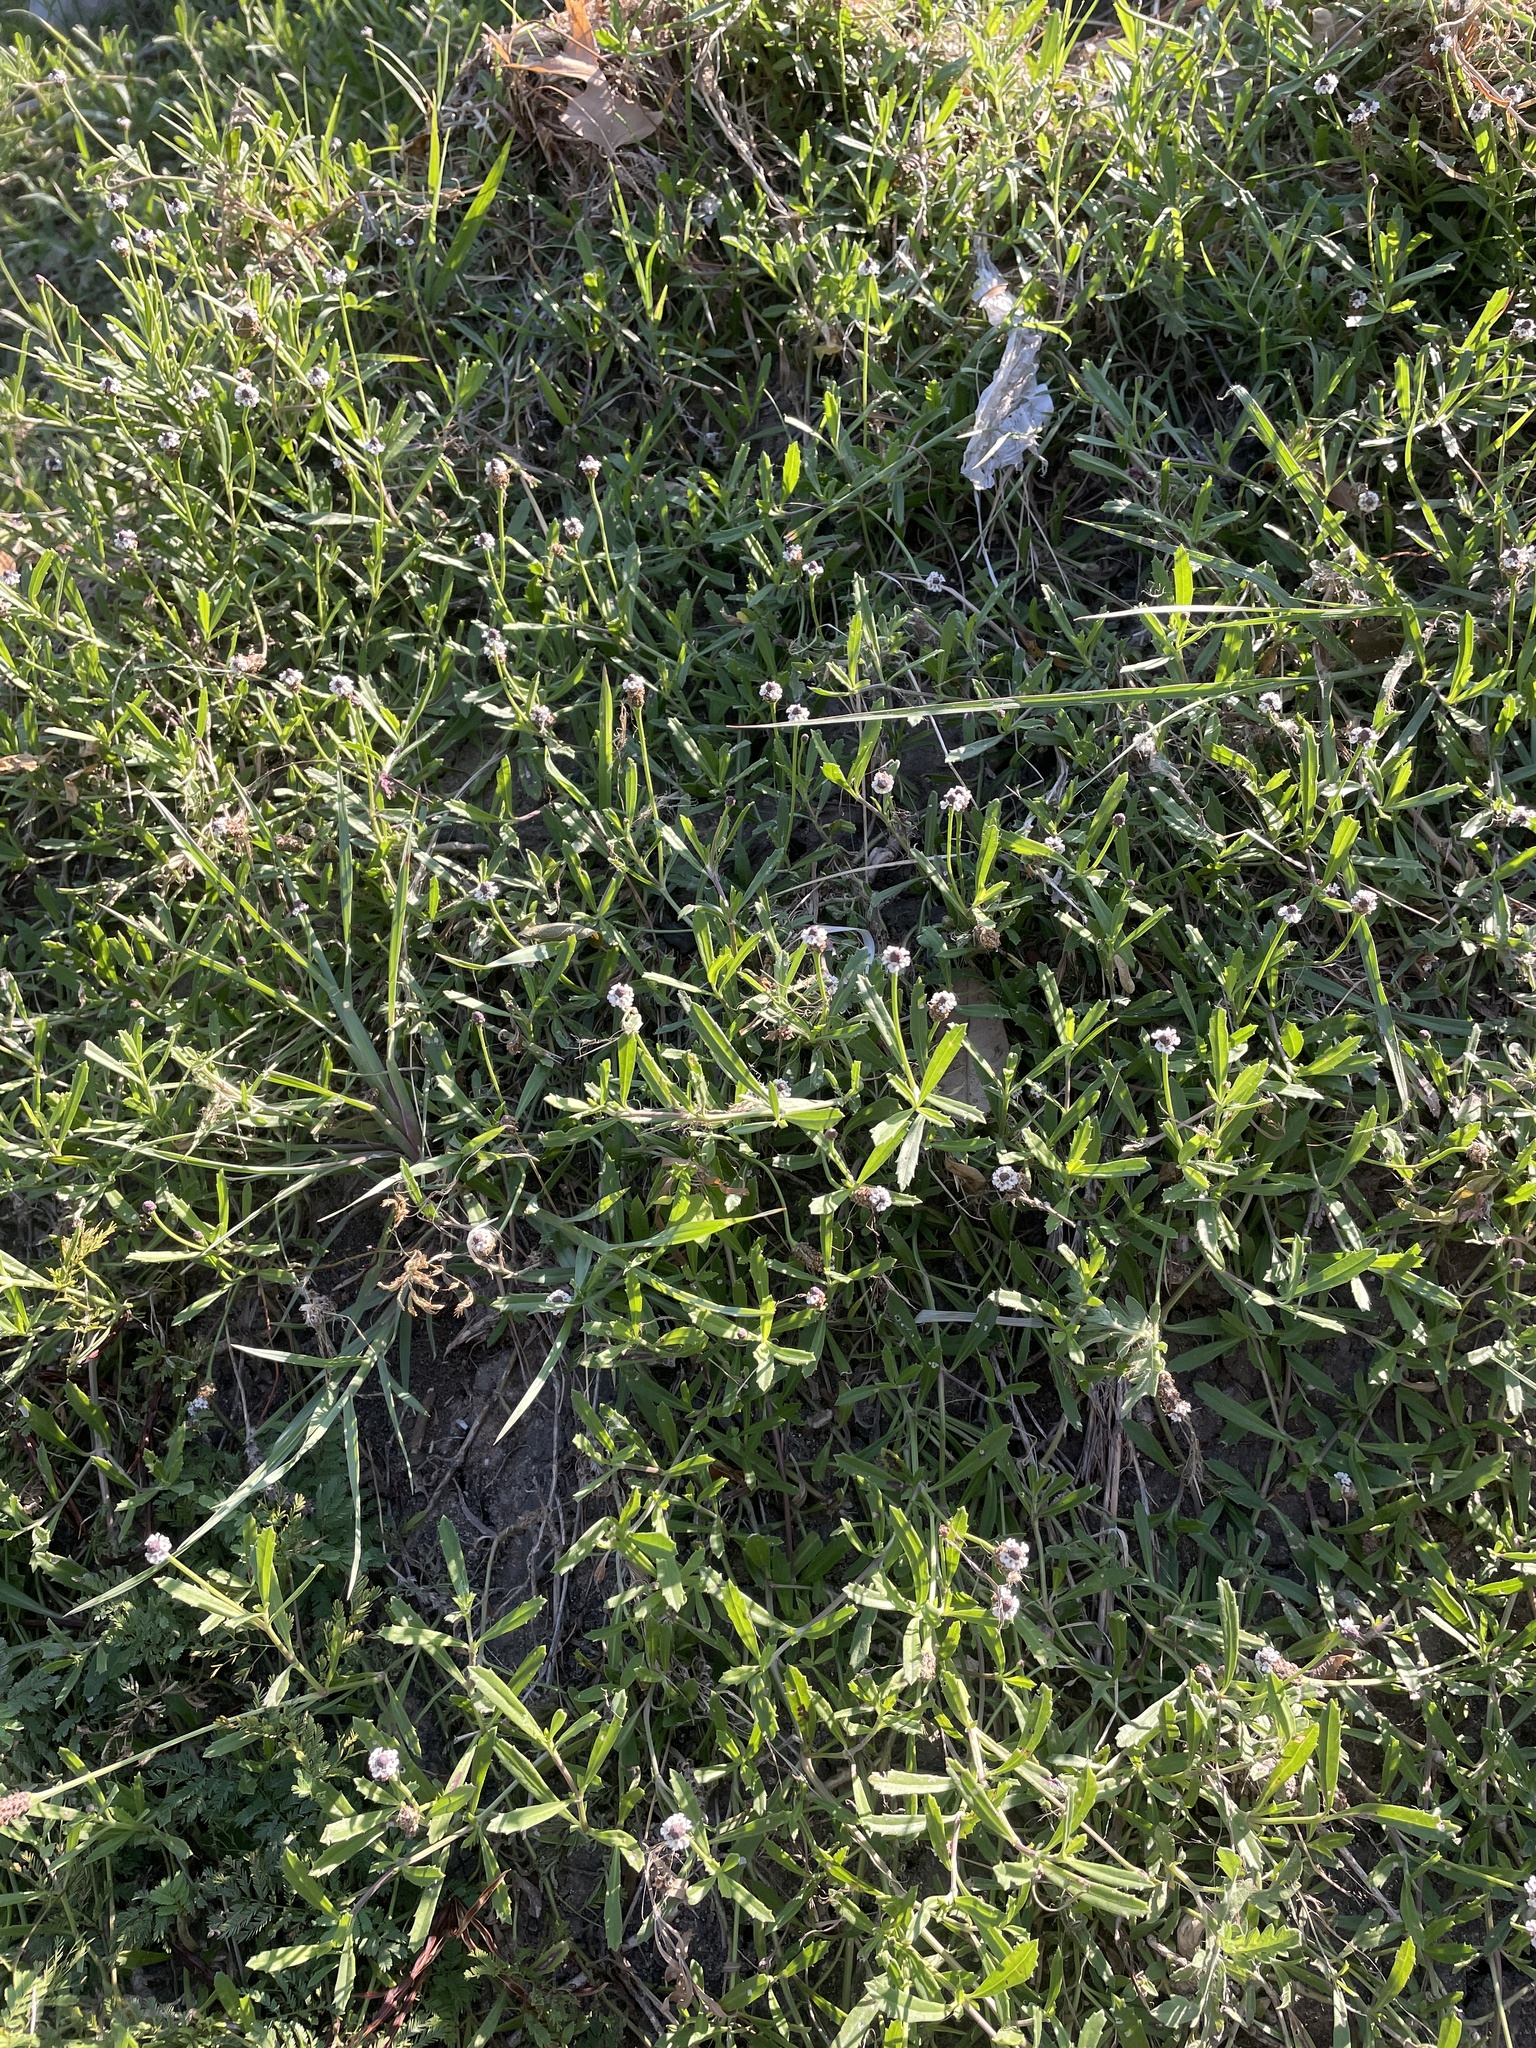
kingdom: Plantae
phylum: Tracheophyta
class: Magnoliopsida
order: Lamiales
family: Verbenaceae
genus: Phyla
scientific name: Phyla nodiflora
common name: Frogfruit
